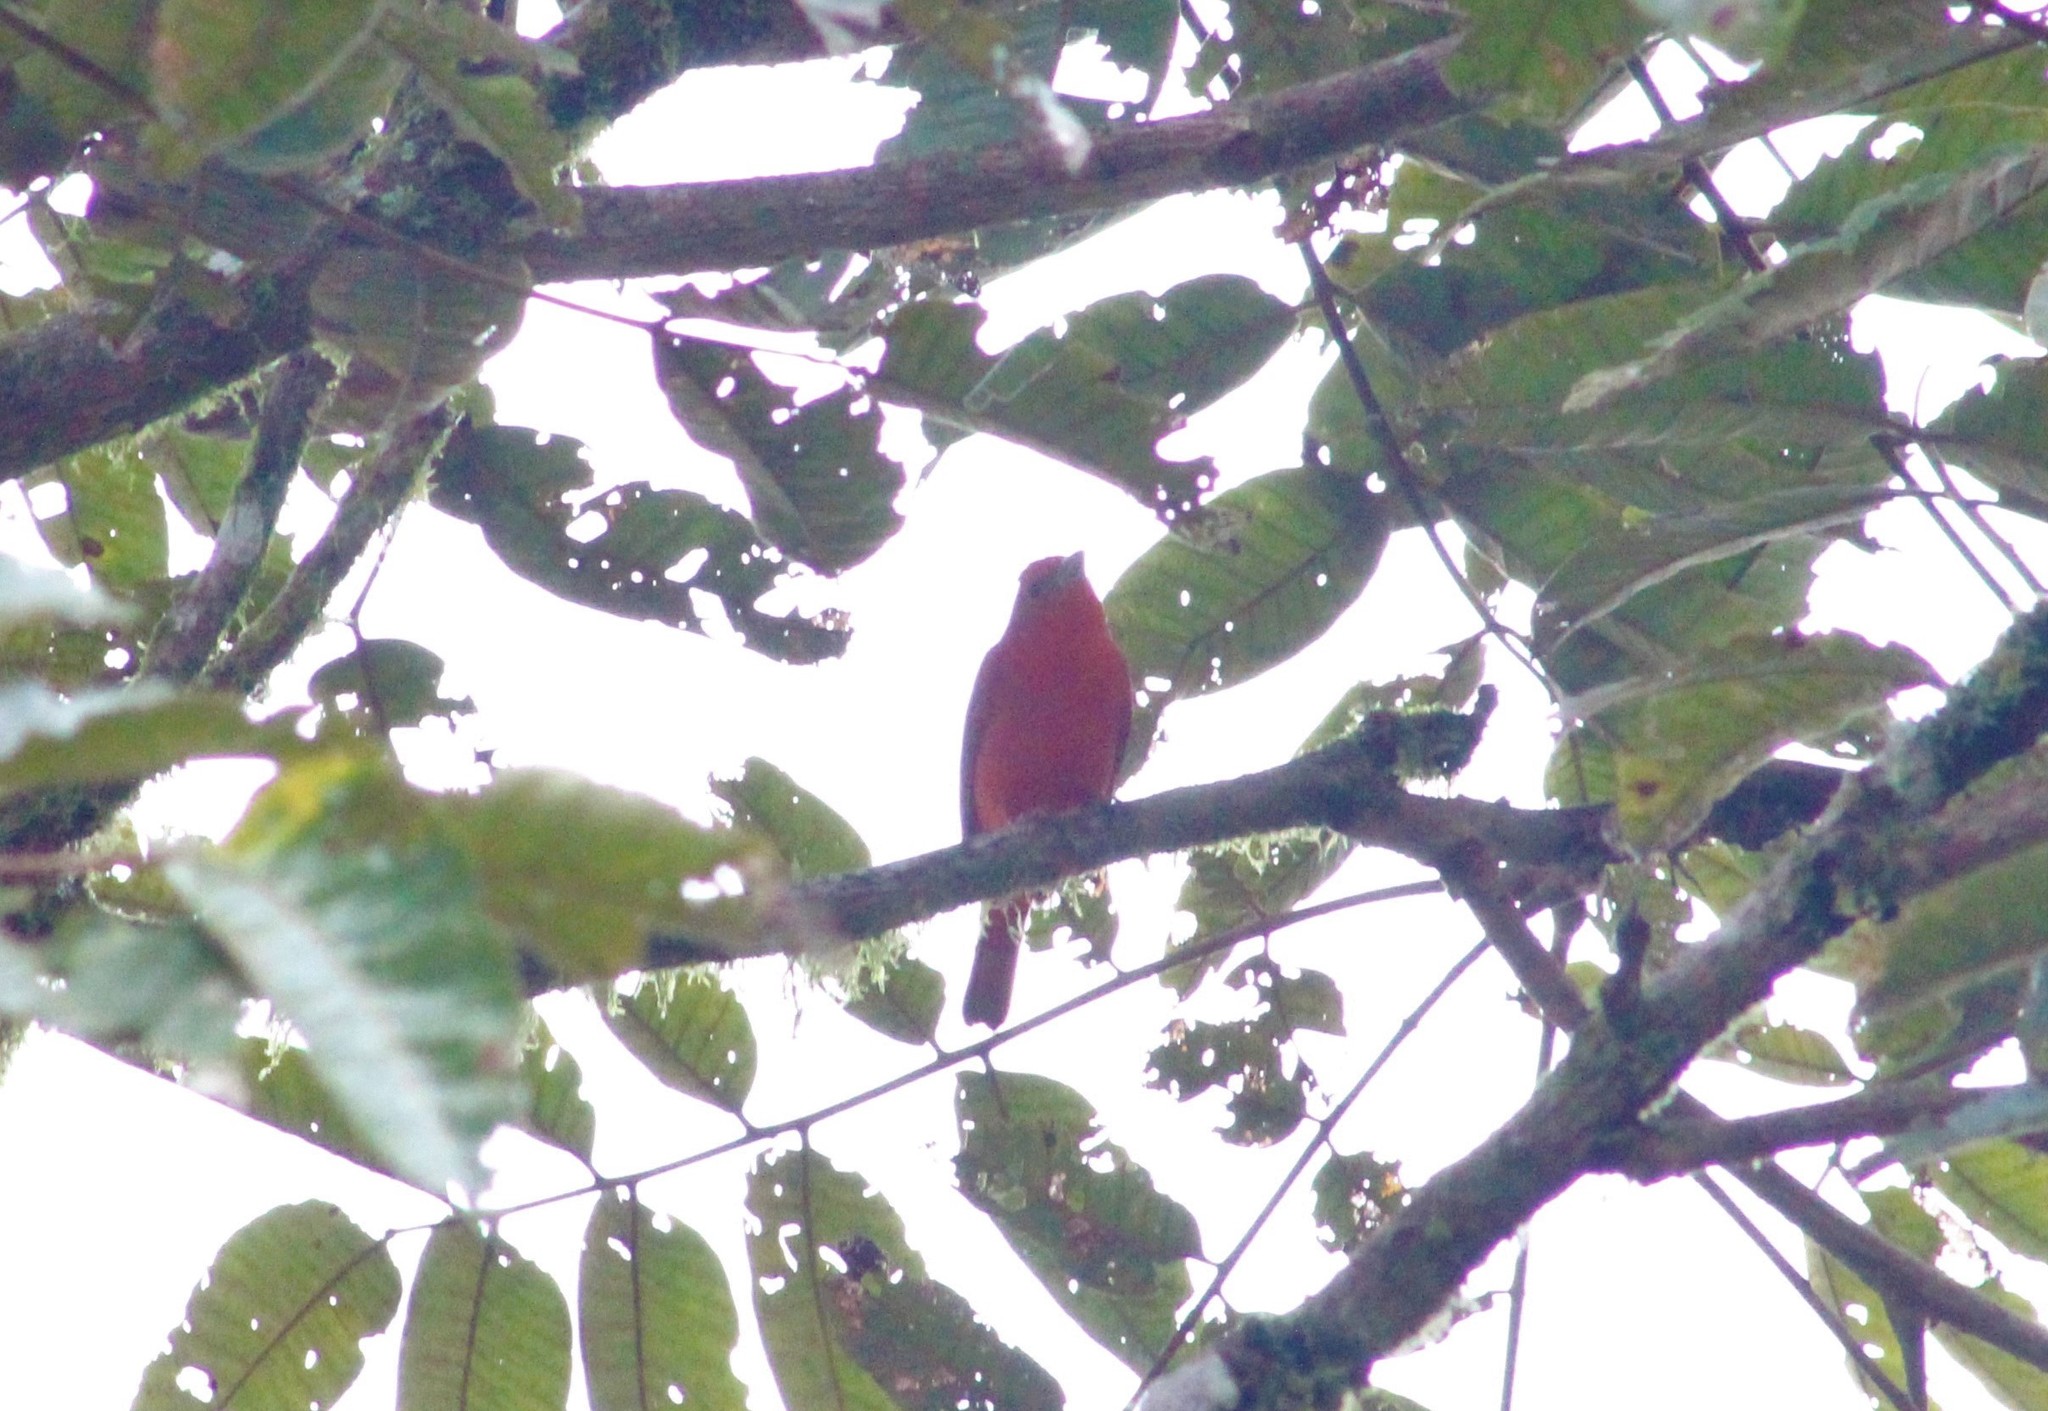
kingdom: Animalia
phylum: Chordata
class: Aves
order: Passeriformes
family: Cardinalidae
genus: Piranga
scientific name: Piranga rubra
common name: Summer tanager
